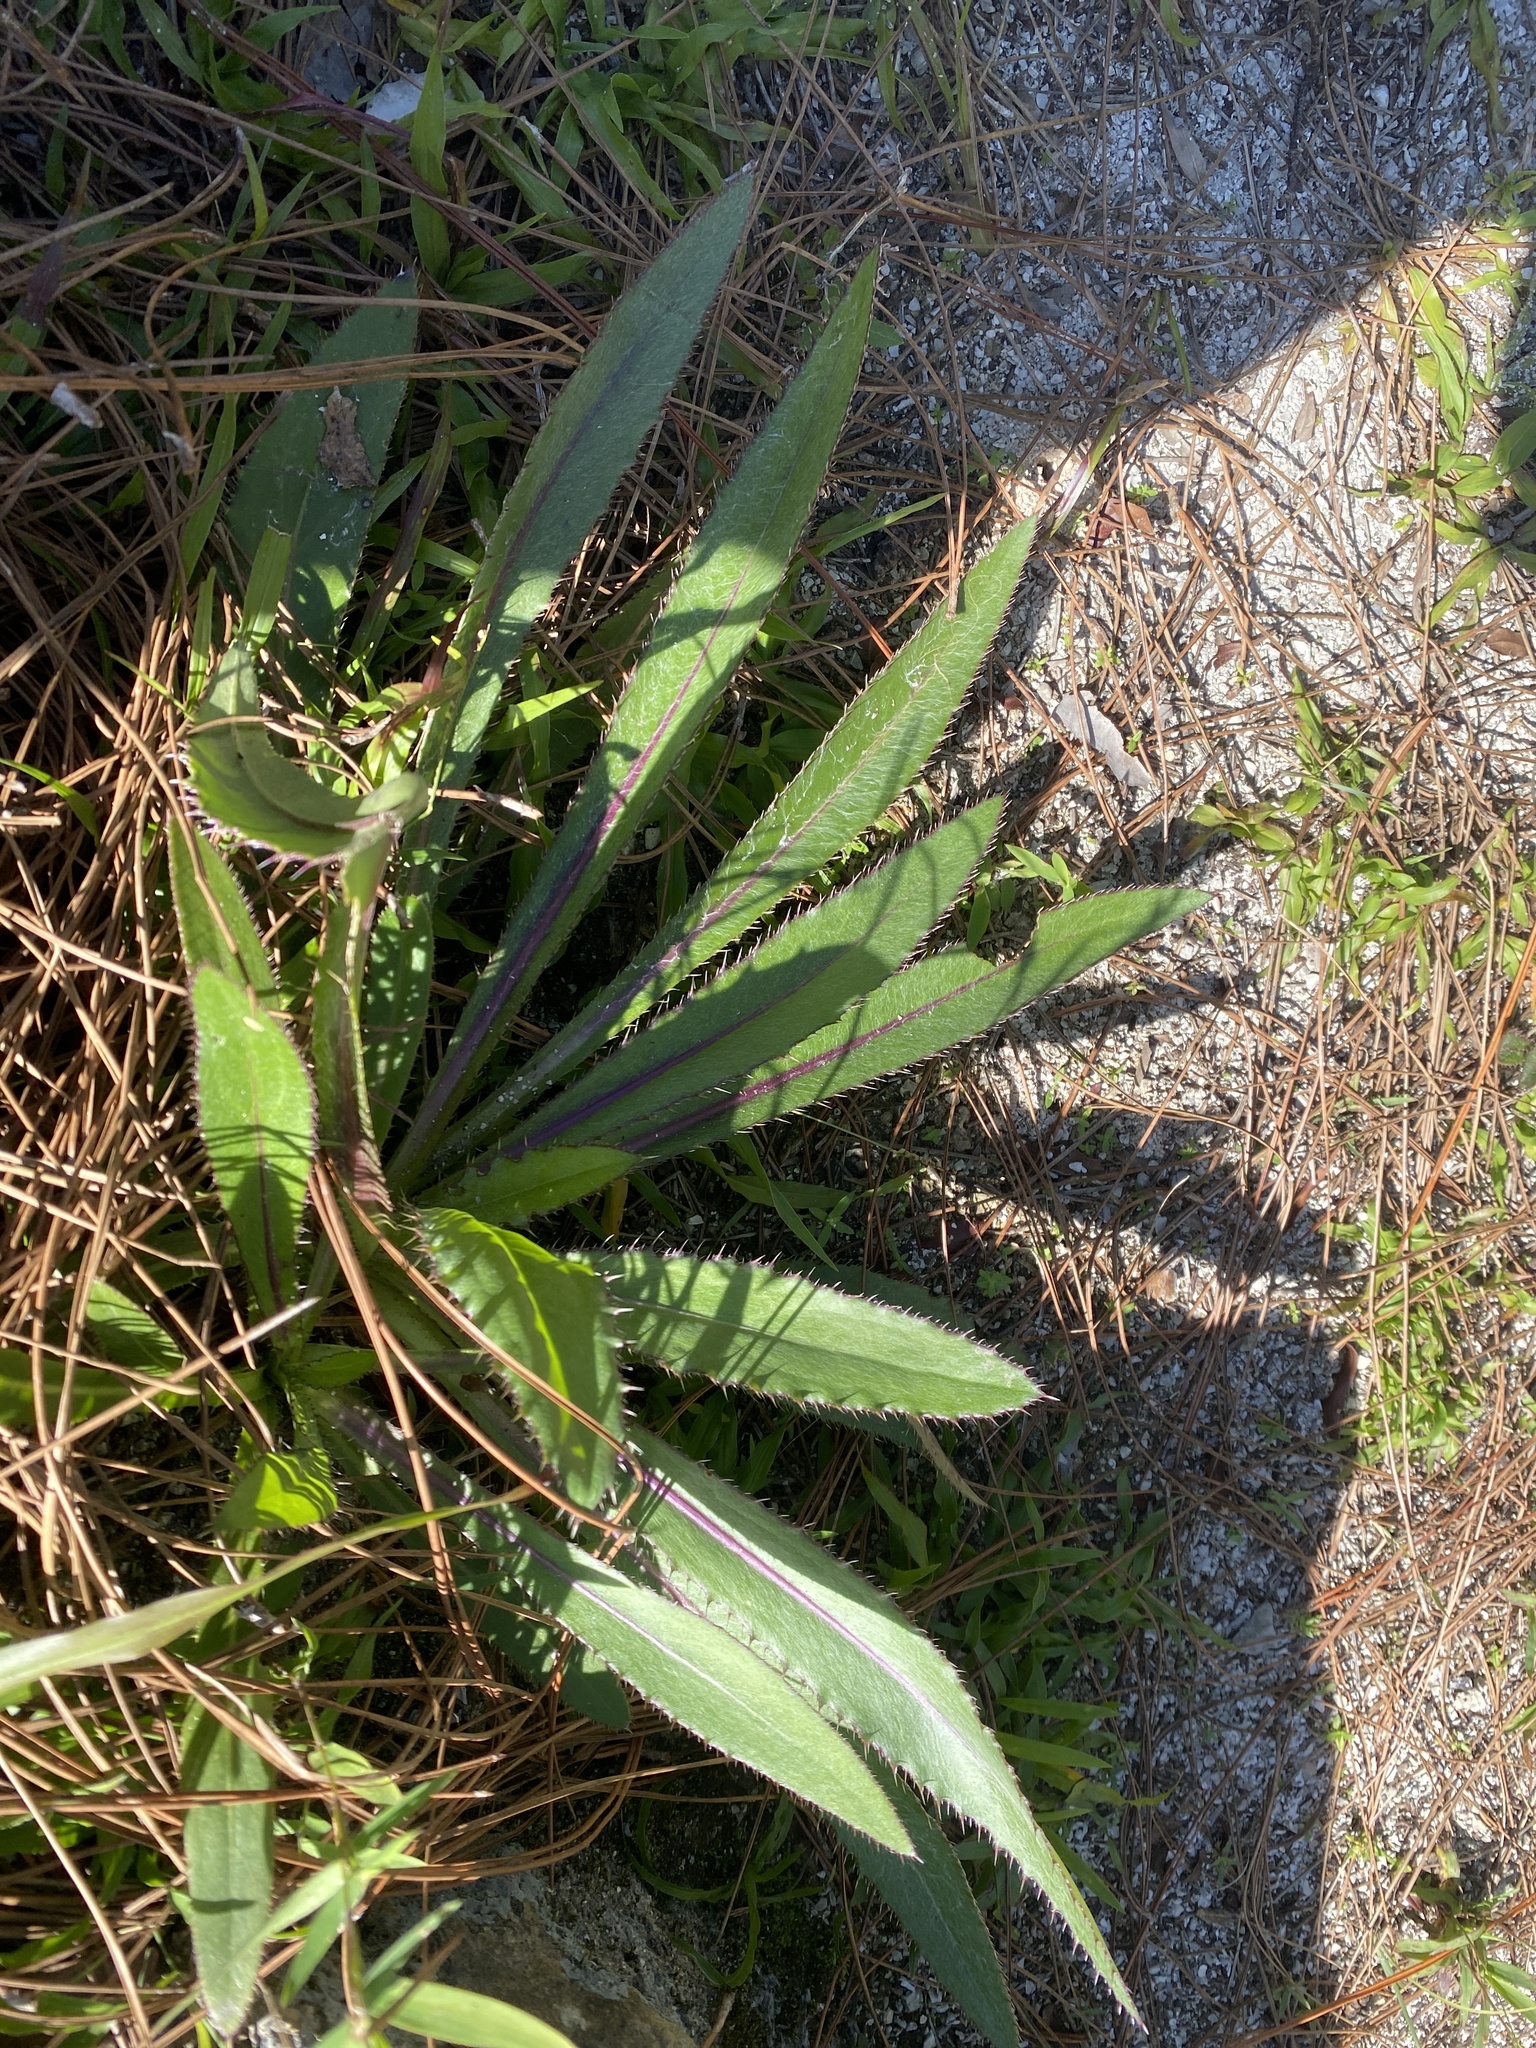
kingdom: Plantae
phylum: Tracheophyta
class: Magnoliopsida
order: Asterales
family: Asteraceae
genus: Cirsium
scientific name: Cirsium horridulum
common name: Bristly thistle
